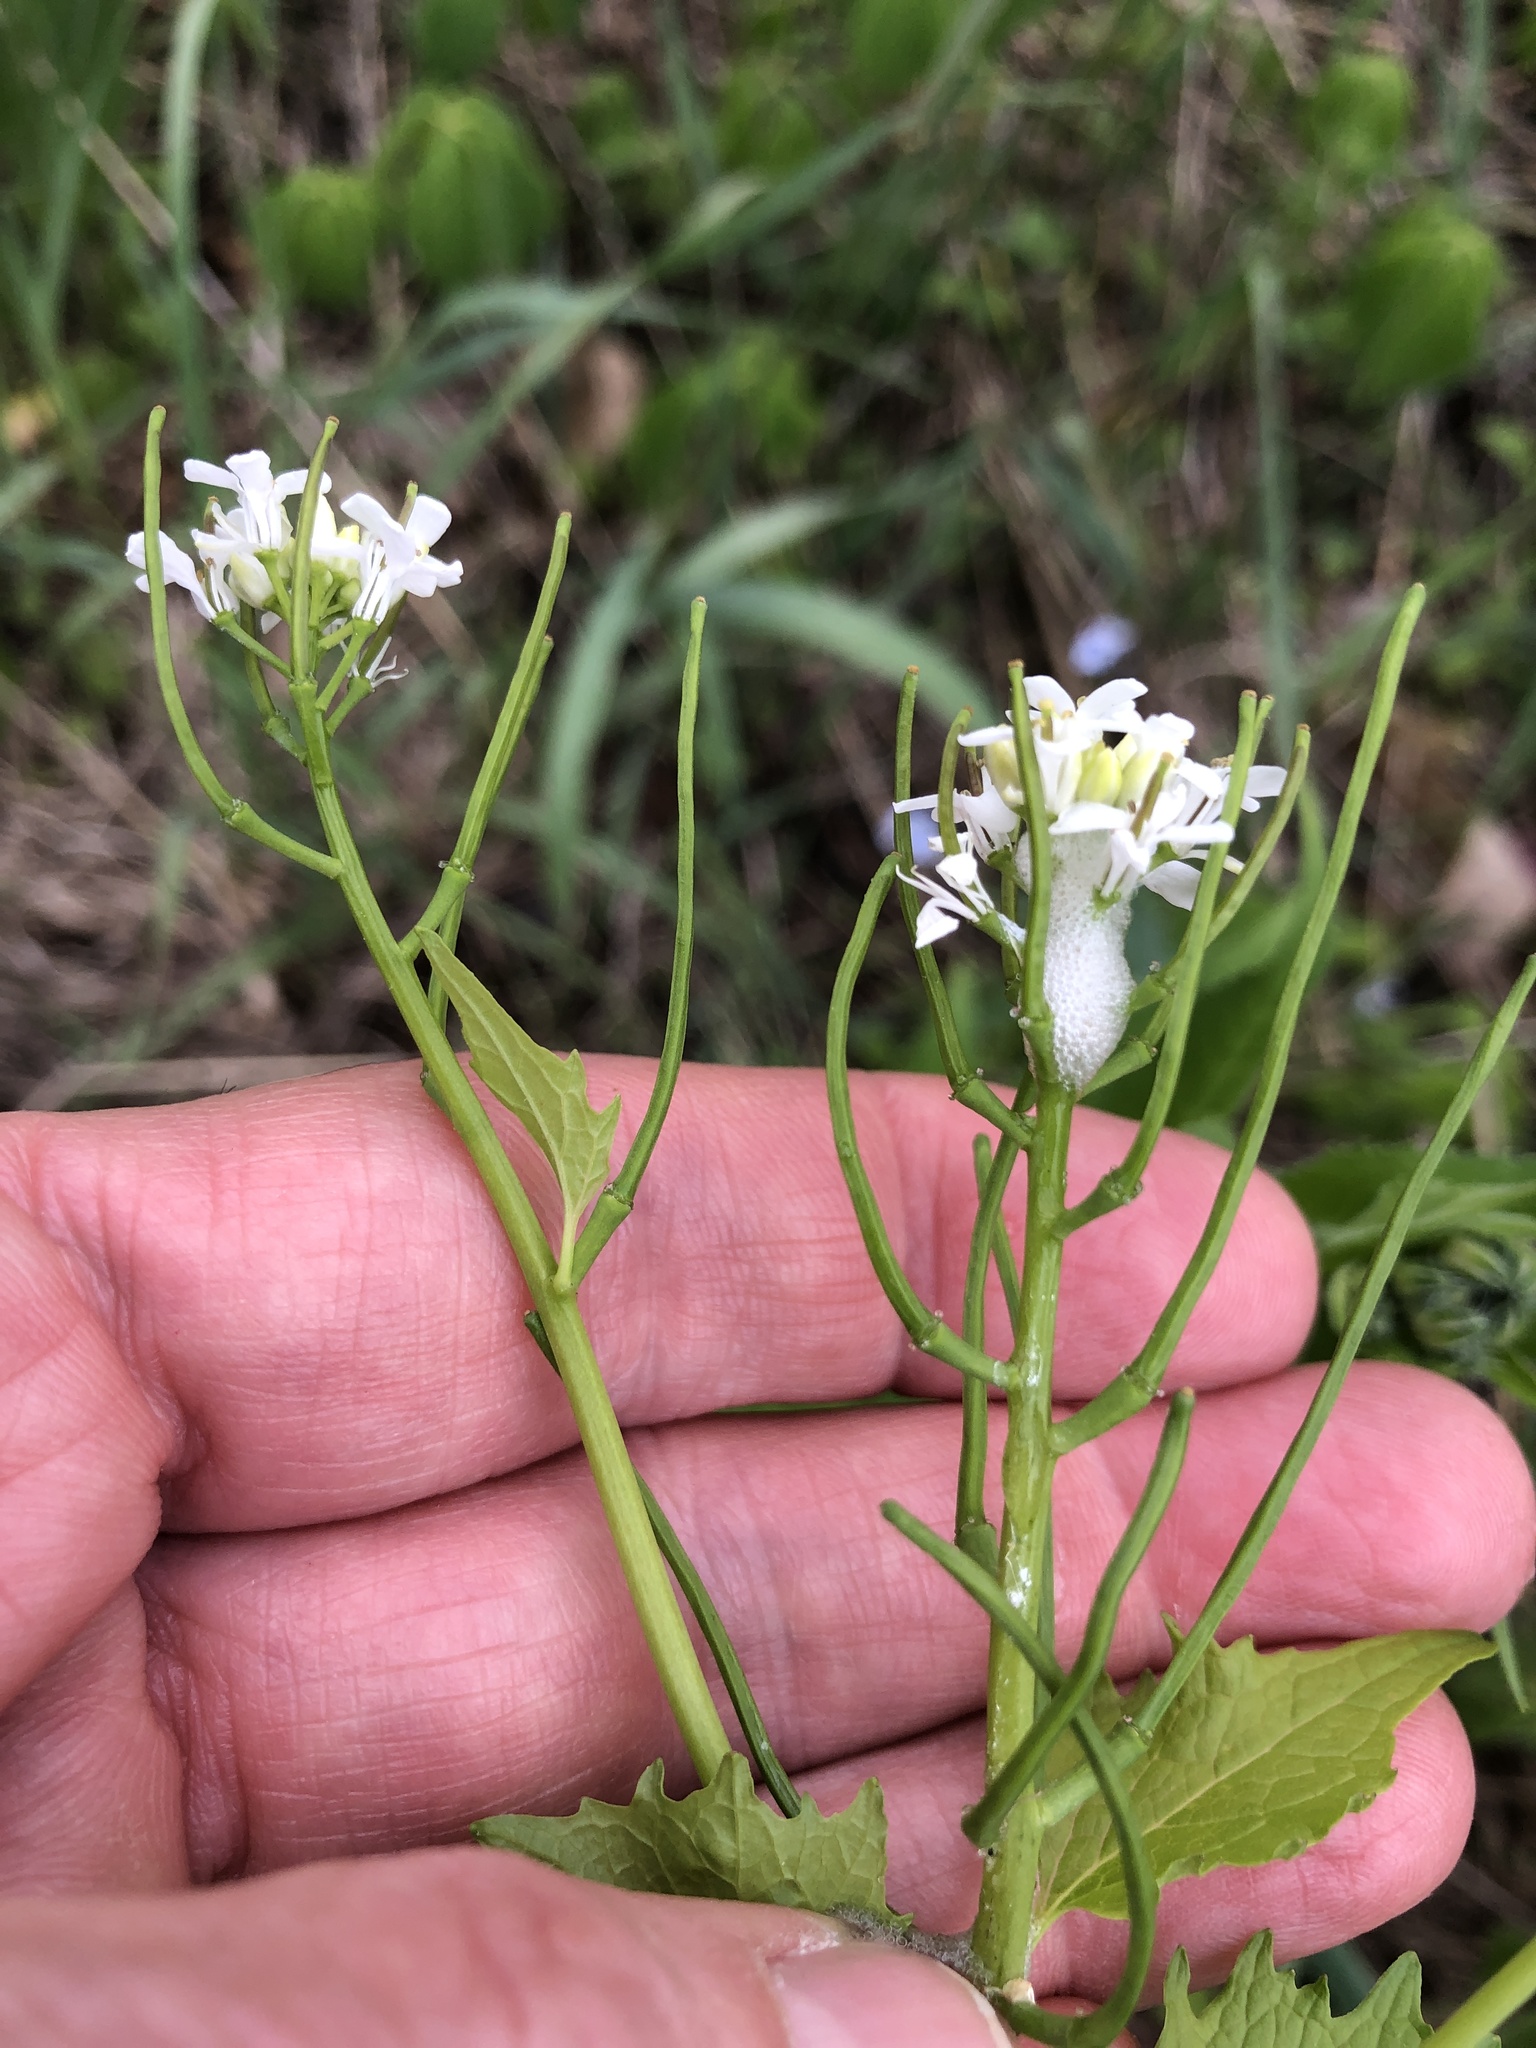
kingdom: Plantae
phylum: Tracheophyta
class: Magnoliopsida
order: Brassicales
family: Brassicaceae
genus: Alliaria
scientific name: Alliaria petiolata
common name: Garlic mustard
